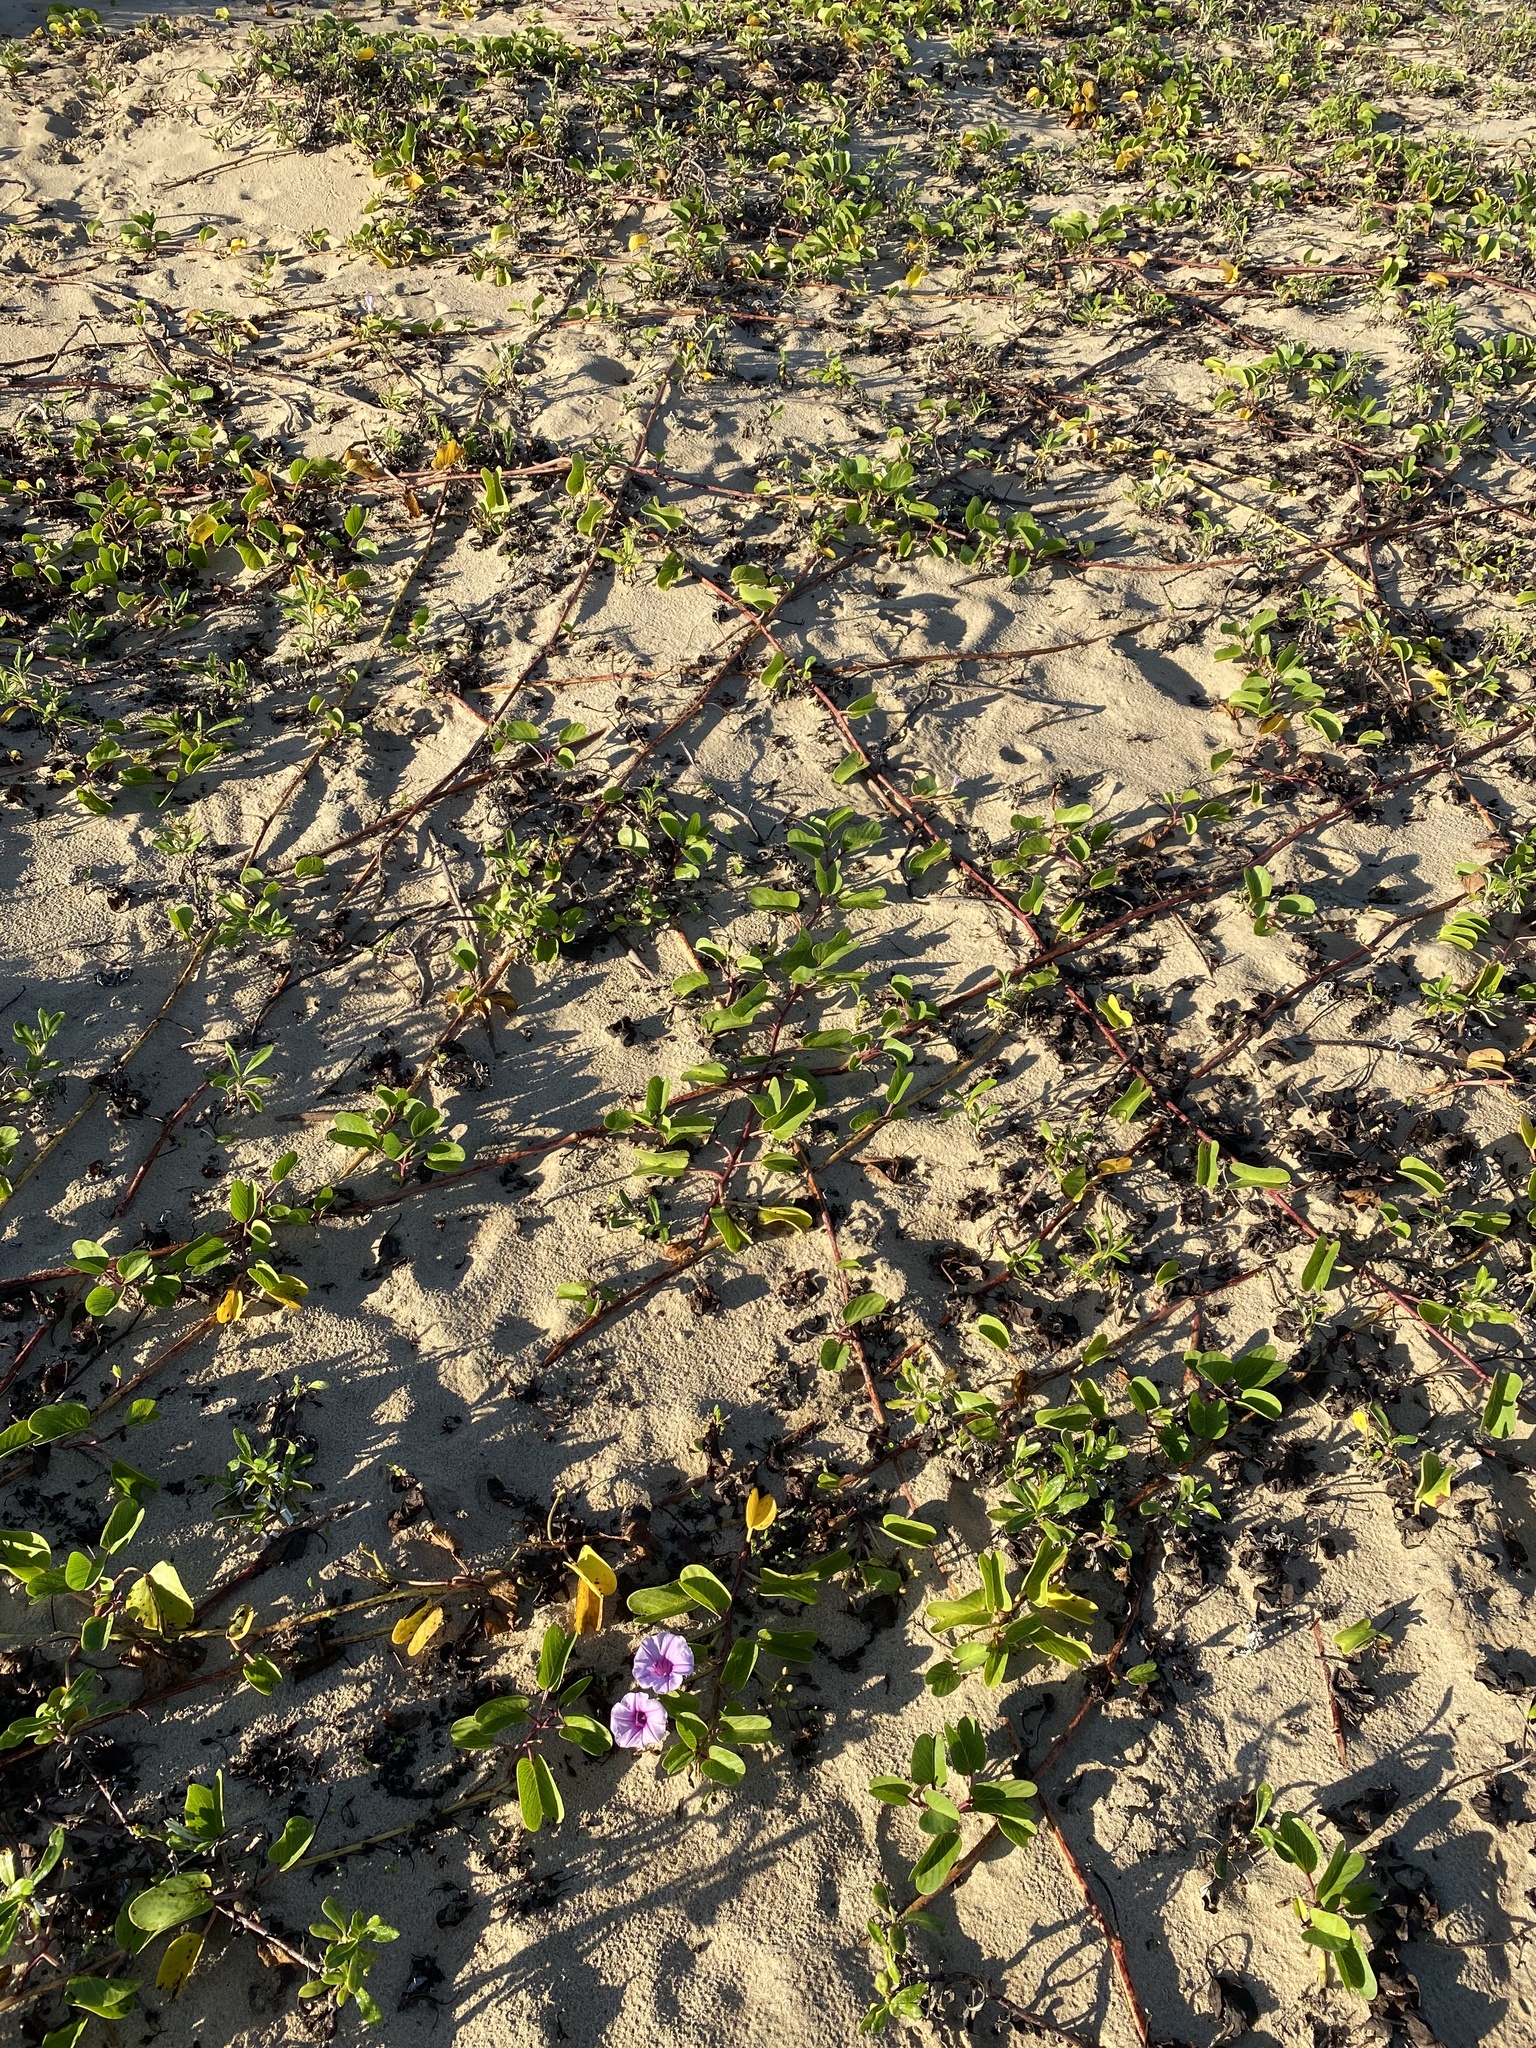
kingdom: Plantae
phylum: Tracheophyta
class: Magnoliopsida
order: Solanales
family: Convolvulaceae
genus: Ipomoea
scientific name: Ipomoea pes-caprae
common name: Beach morning glory
